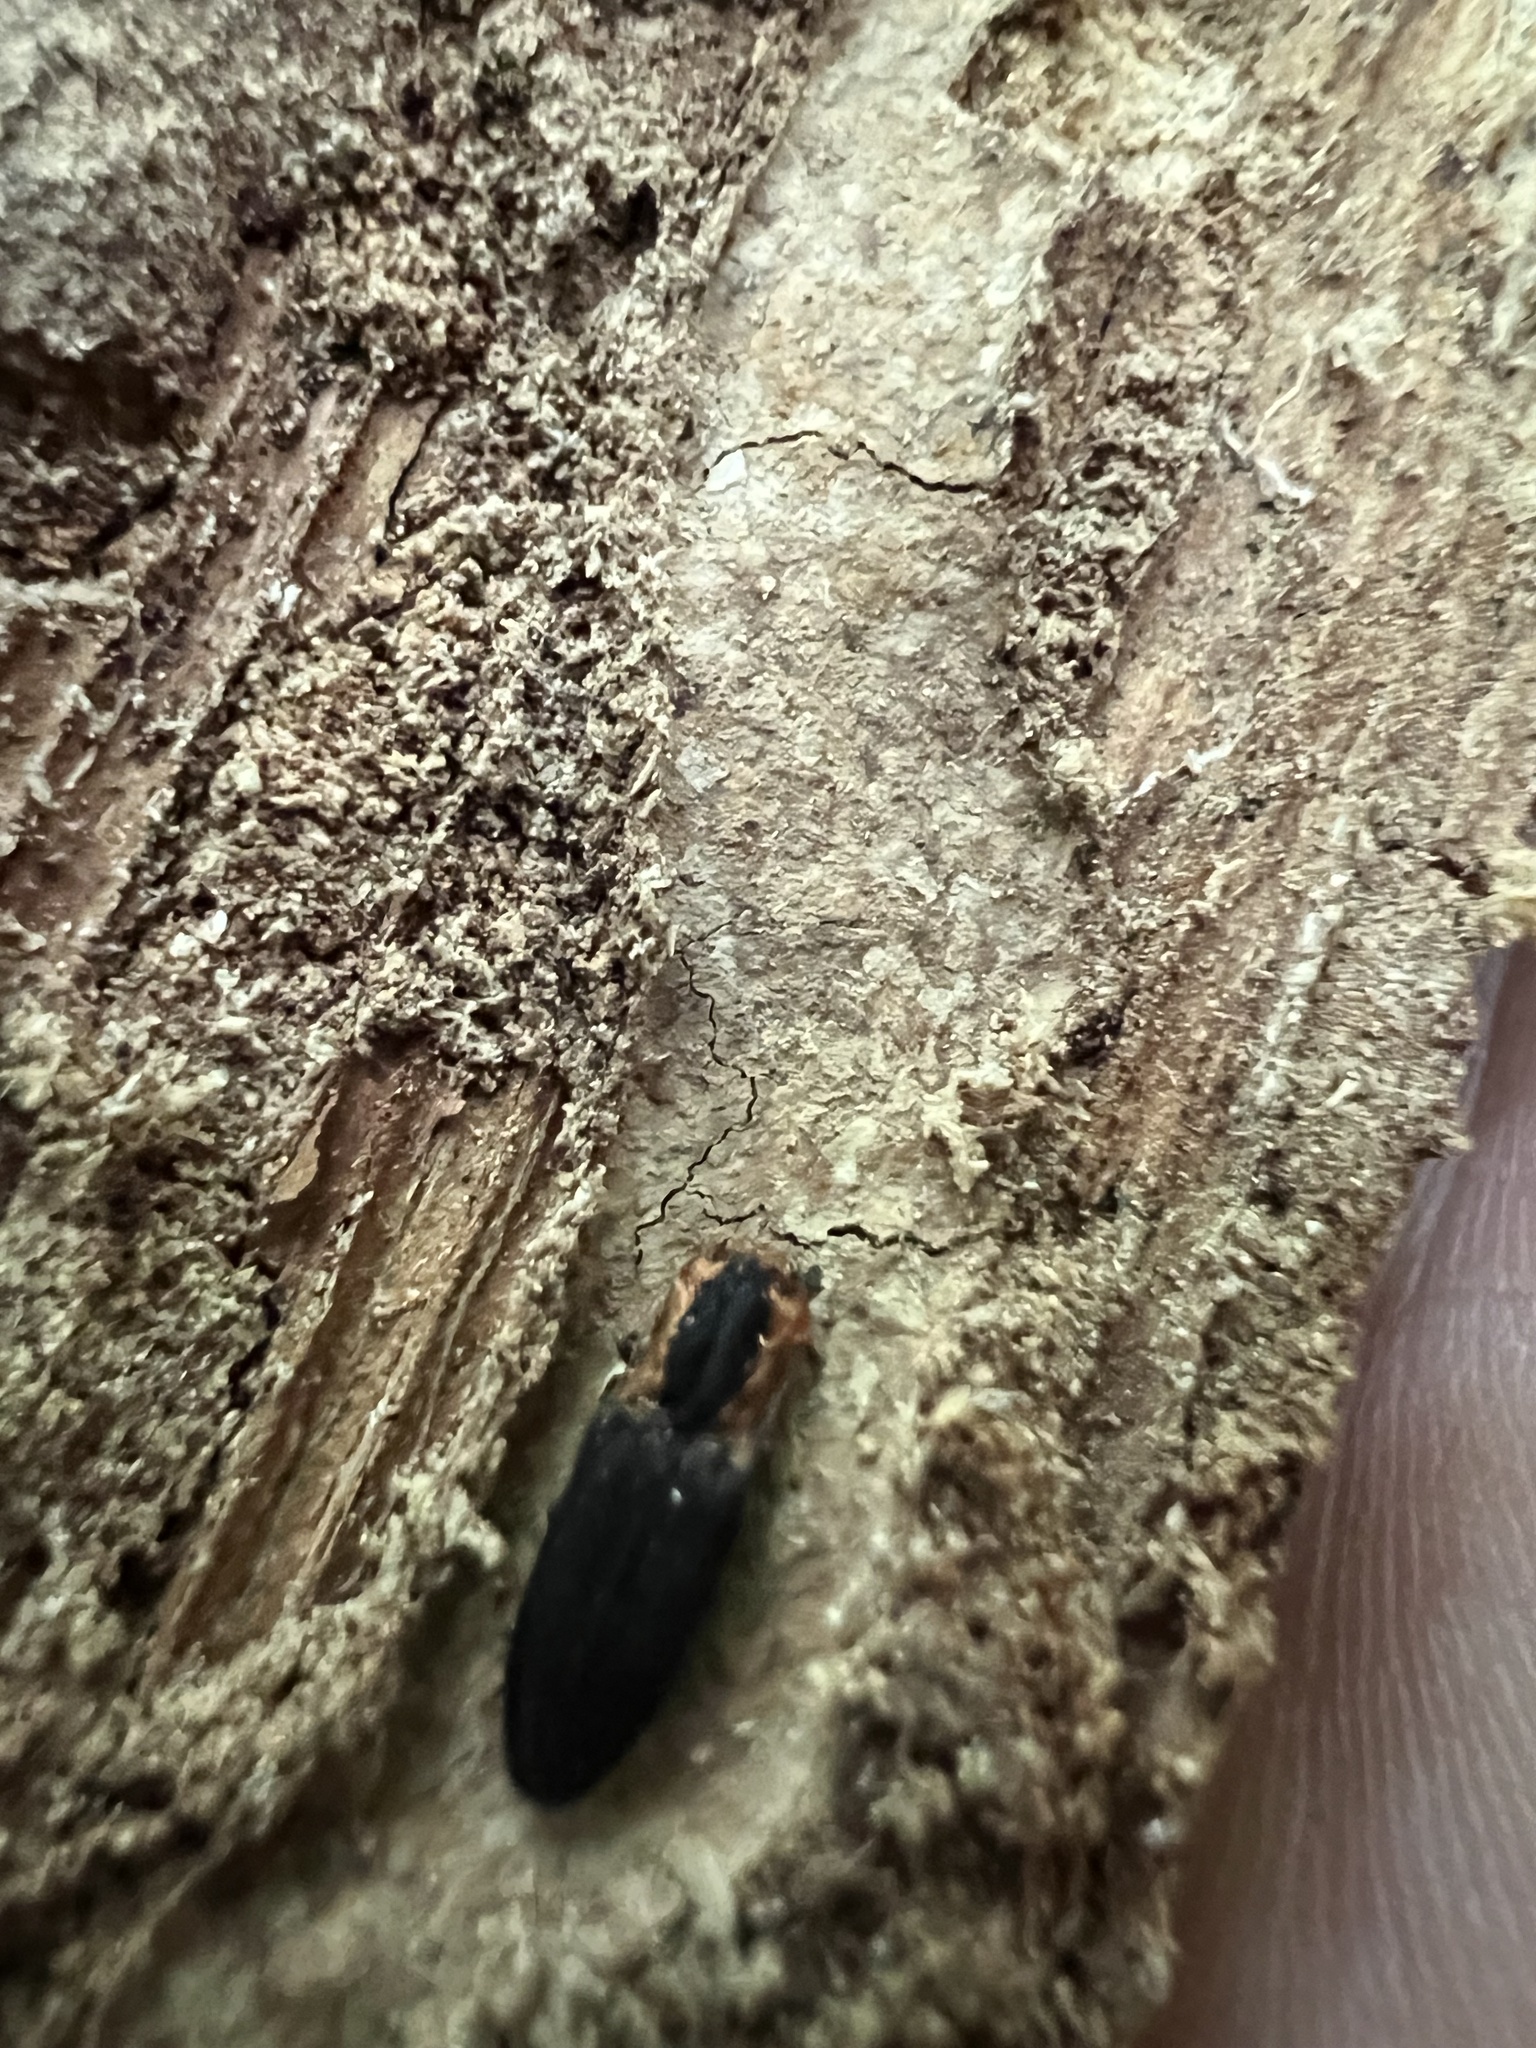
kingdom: Animalia
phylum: Arthropoda
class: Insecta
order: Coleoptera
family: Elateridae
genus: Lacon
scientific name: Lacon discoideus
